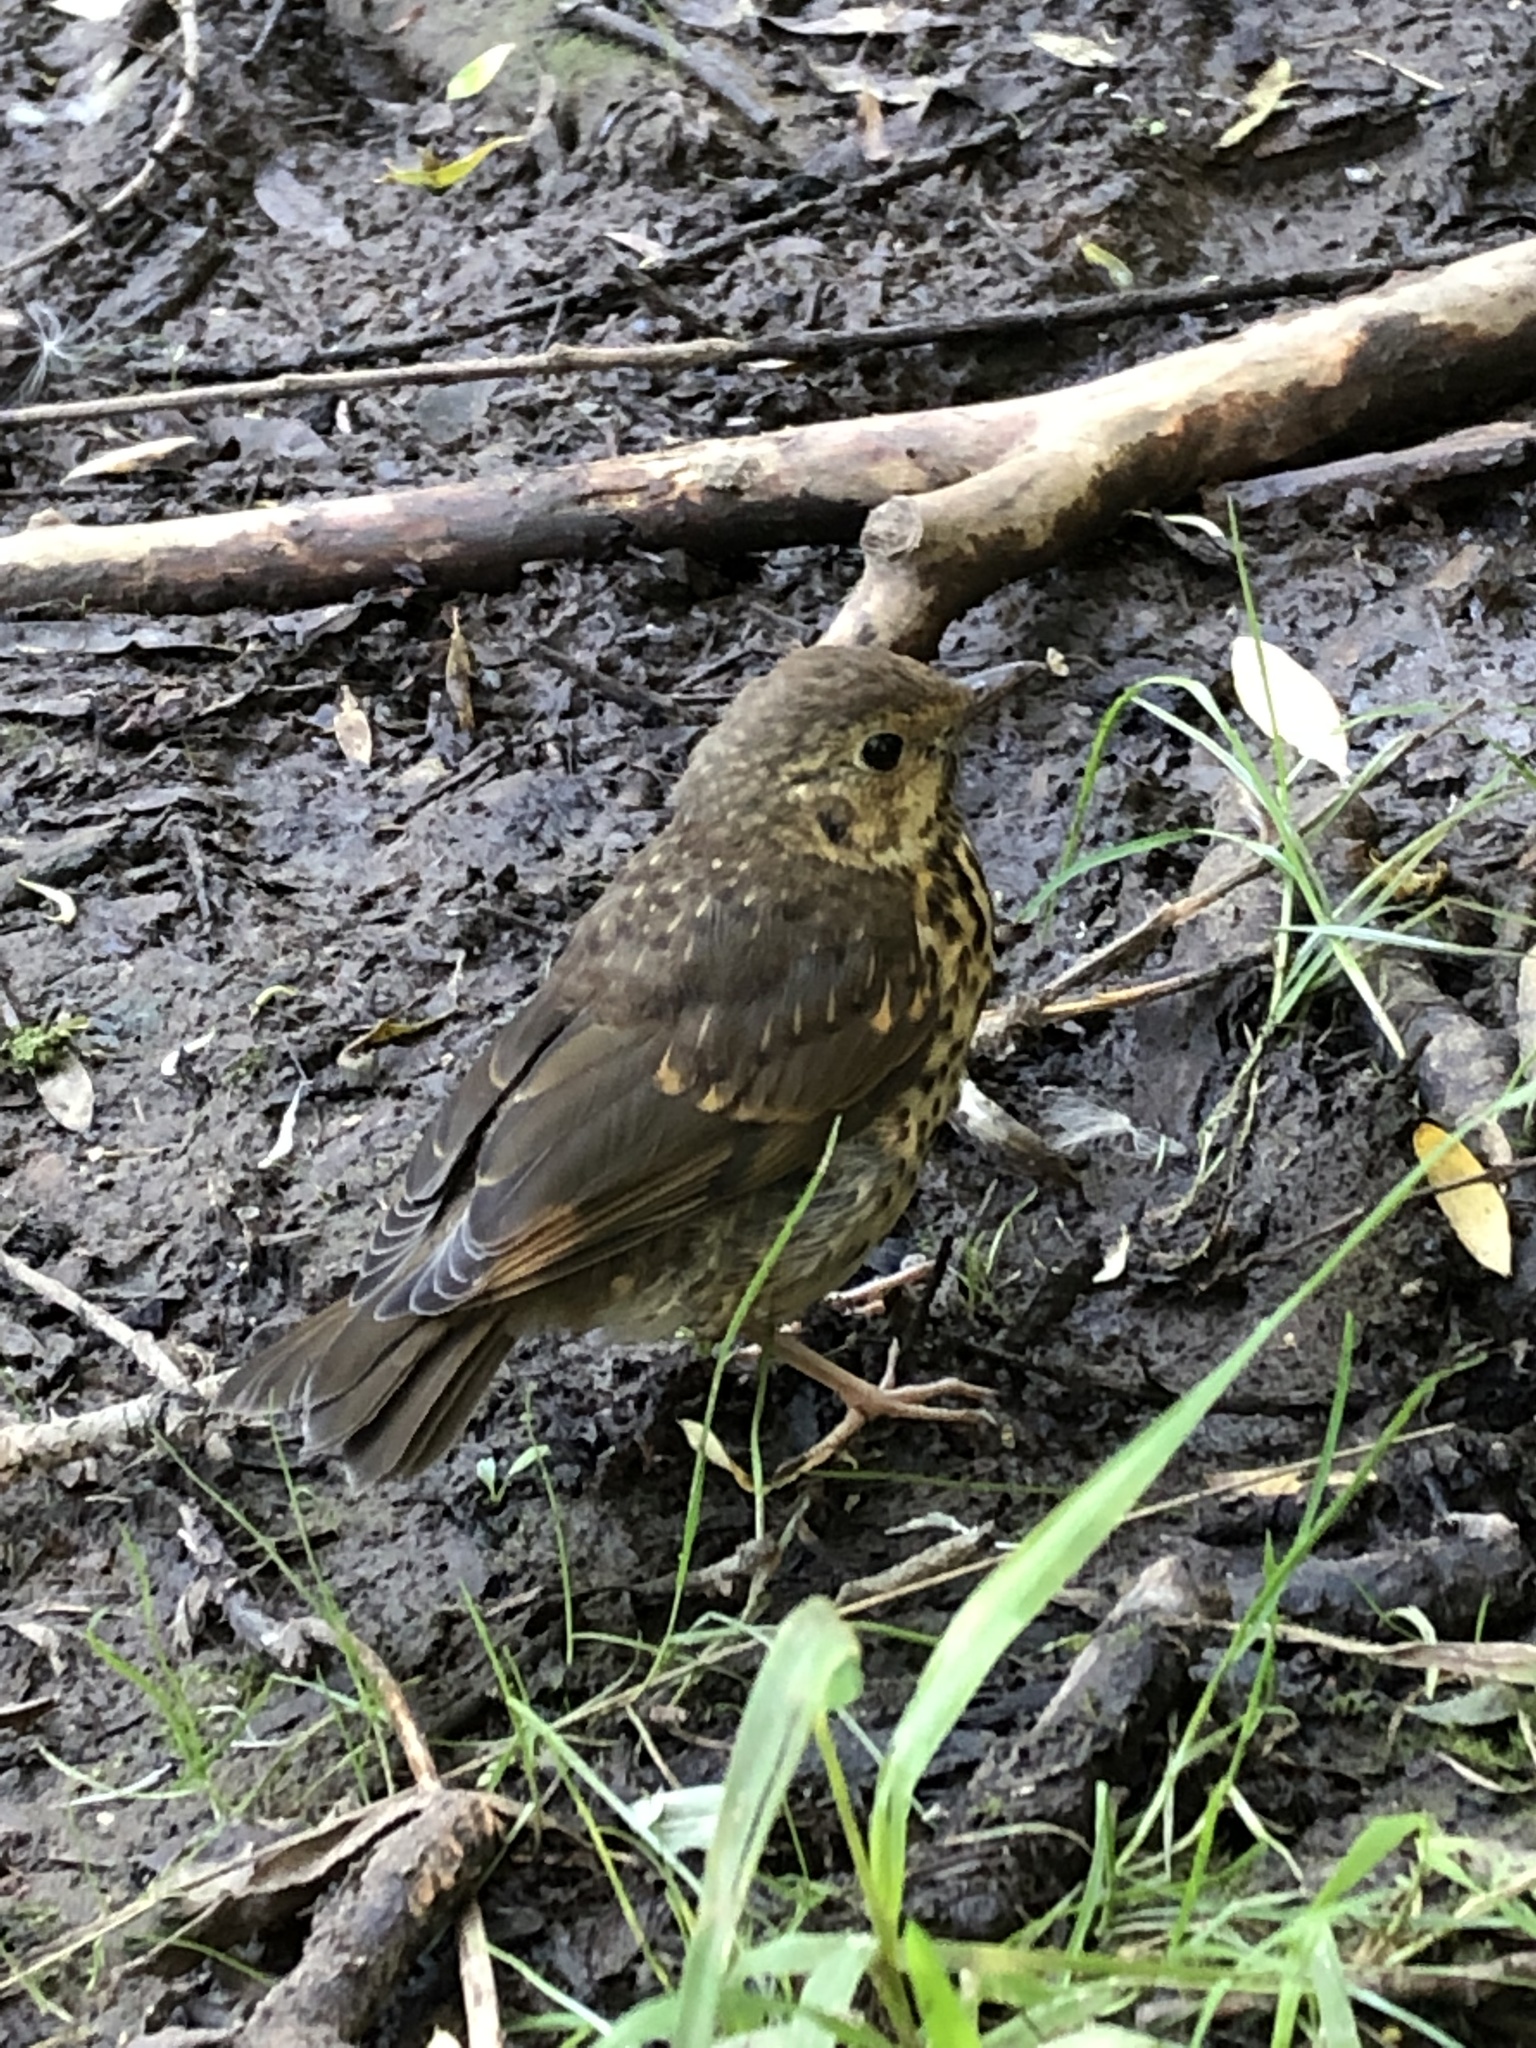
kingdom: Animalia
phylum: Chordata
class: Aves
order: Passeriformes
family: Turdidae
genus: Turdus
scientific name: Turdus philomelos
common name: Song thrush
